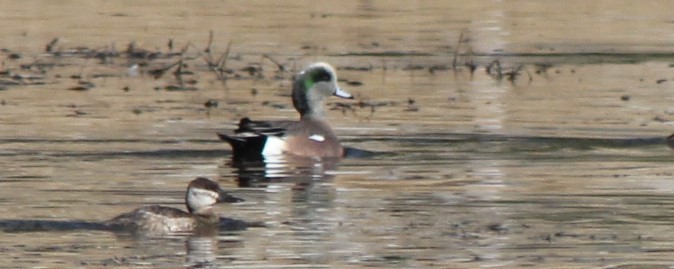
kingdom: Animalia
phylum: Chordata
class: Aves
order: Anseriformes
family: Anatidae
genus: Mareca
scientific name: Mareca americana
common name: American wigeon
